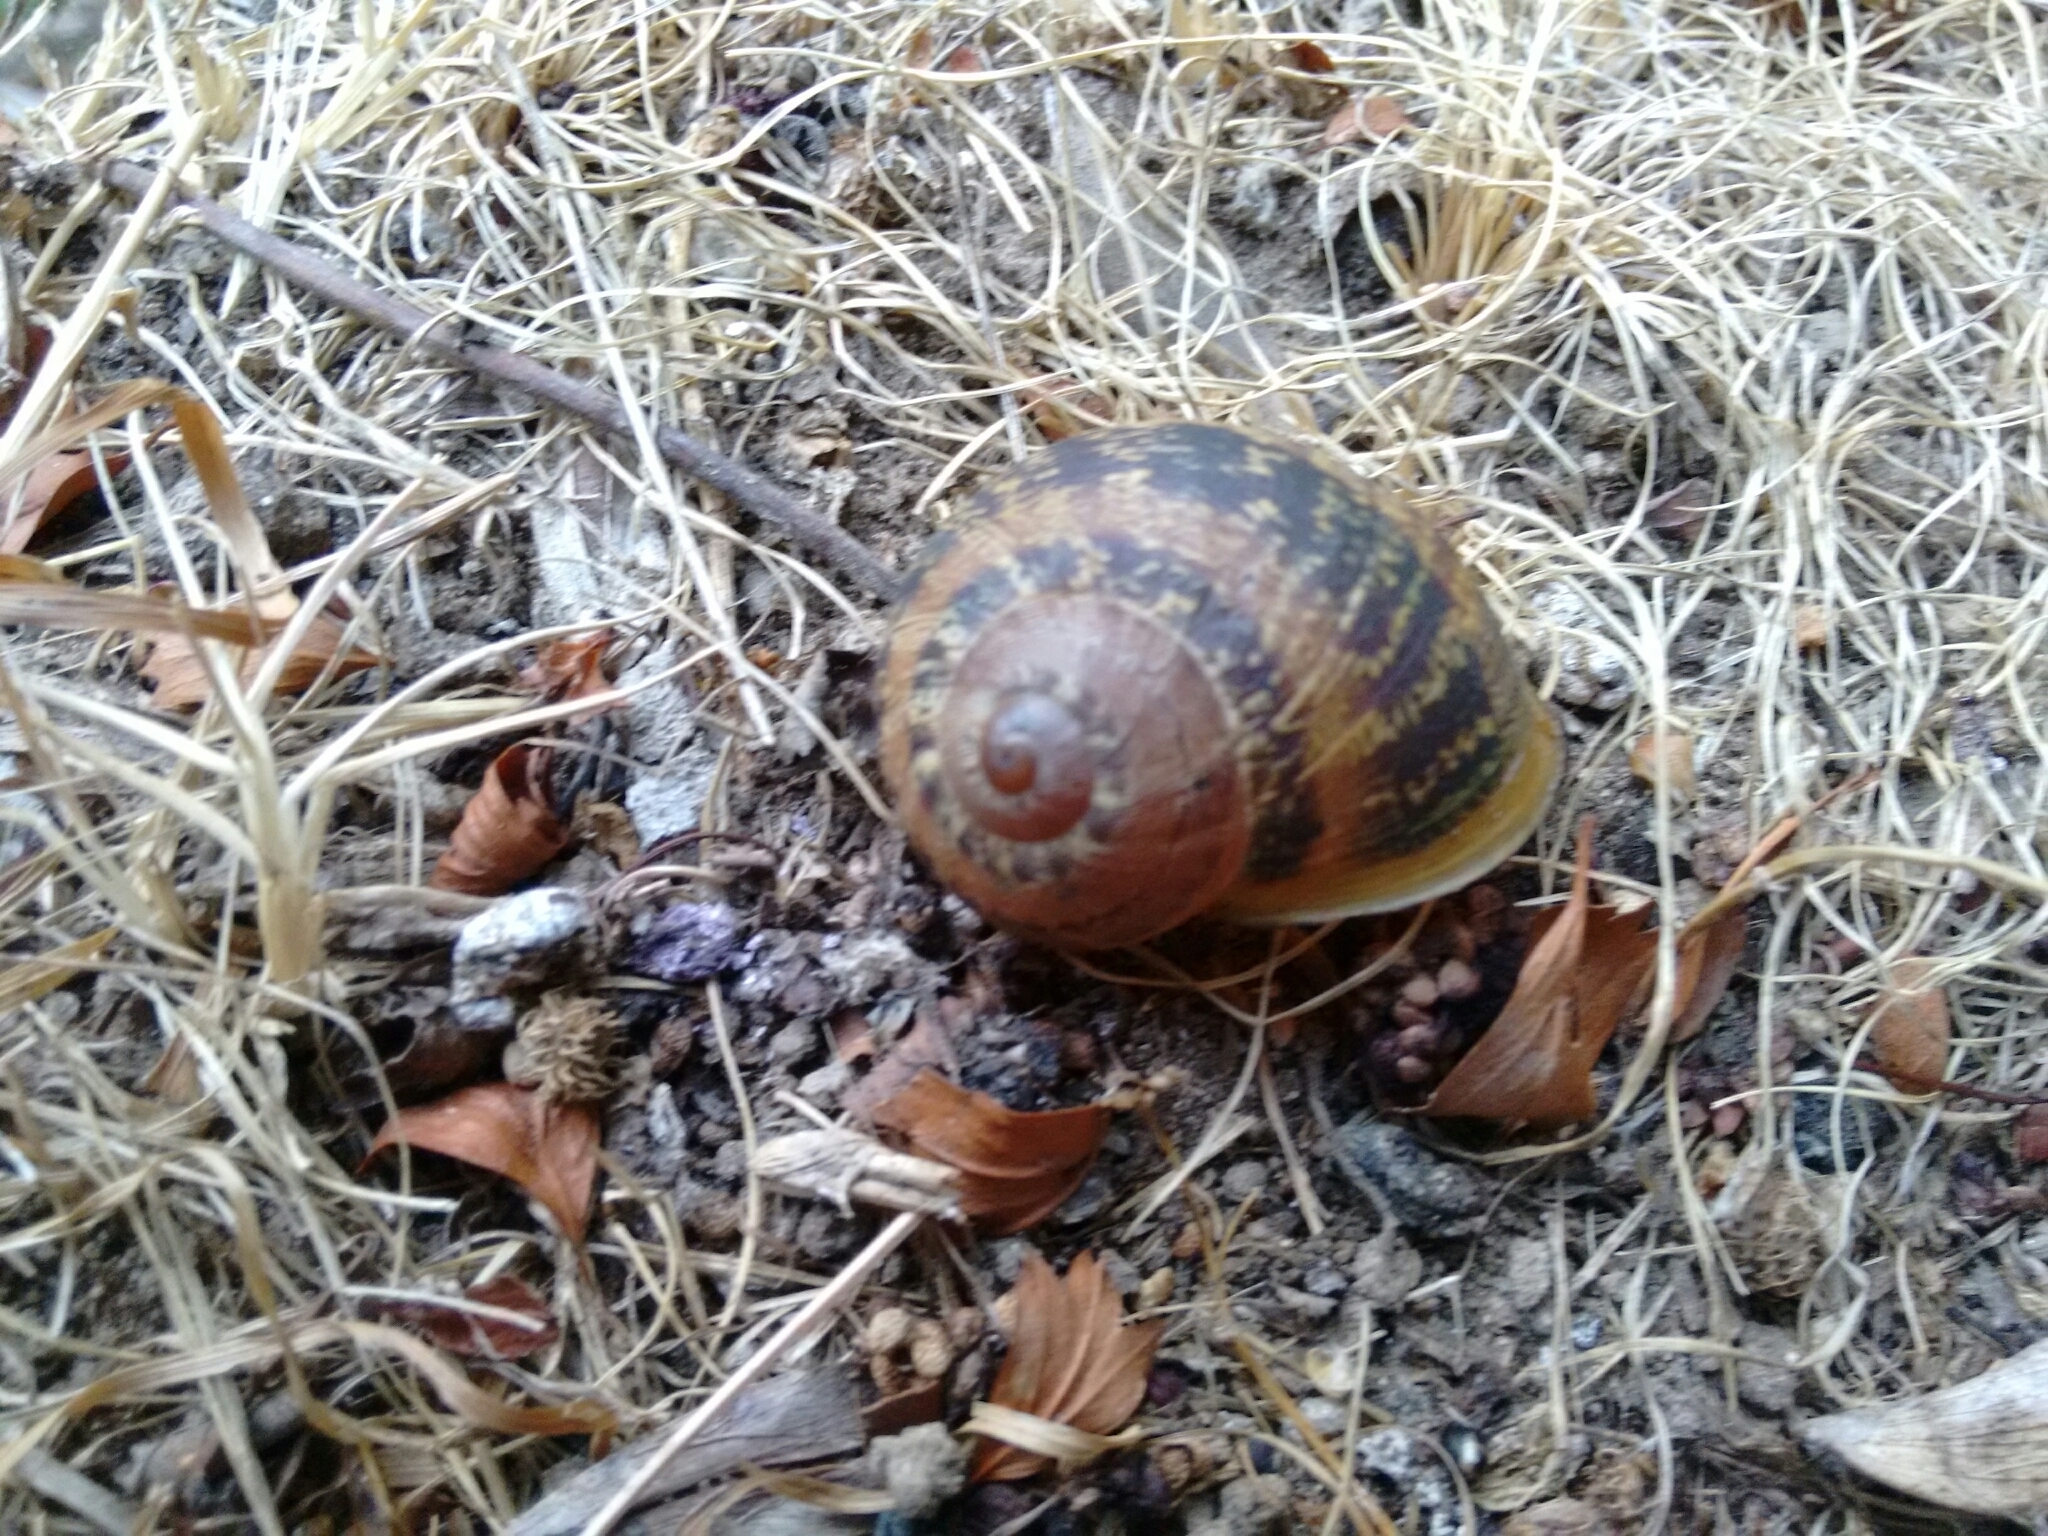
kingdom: Animalia
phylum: Mollusca
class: Gastropoda
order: Stylommatophora
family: Helicidae
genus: Cornu
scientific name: Cornu aspersum
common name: Brown garden snail
